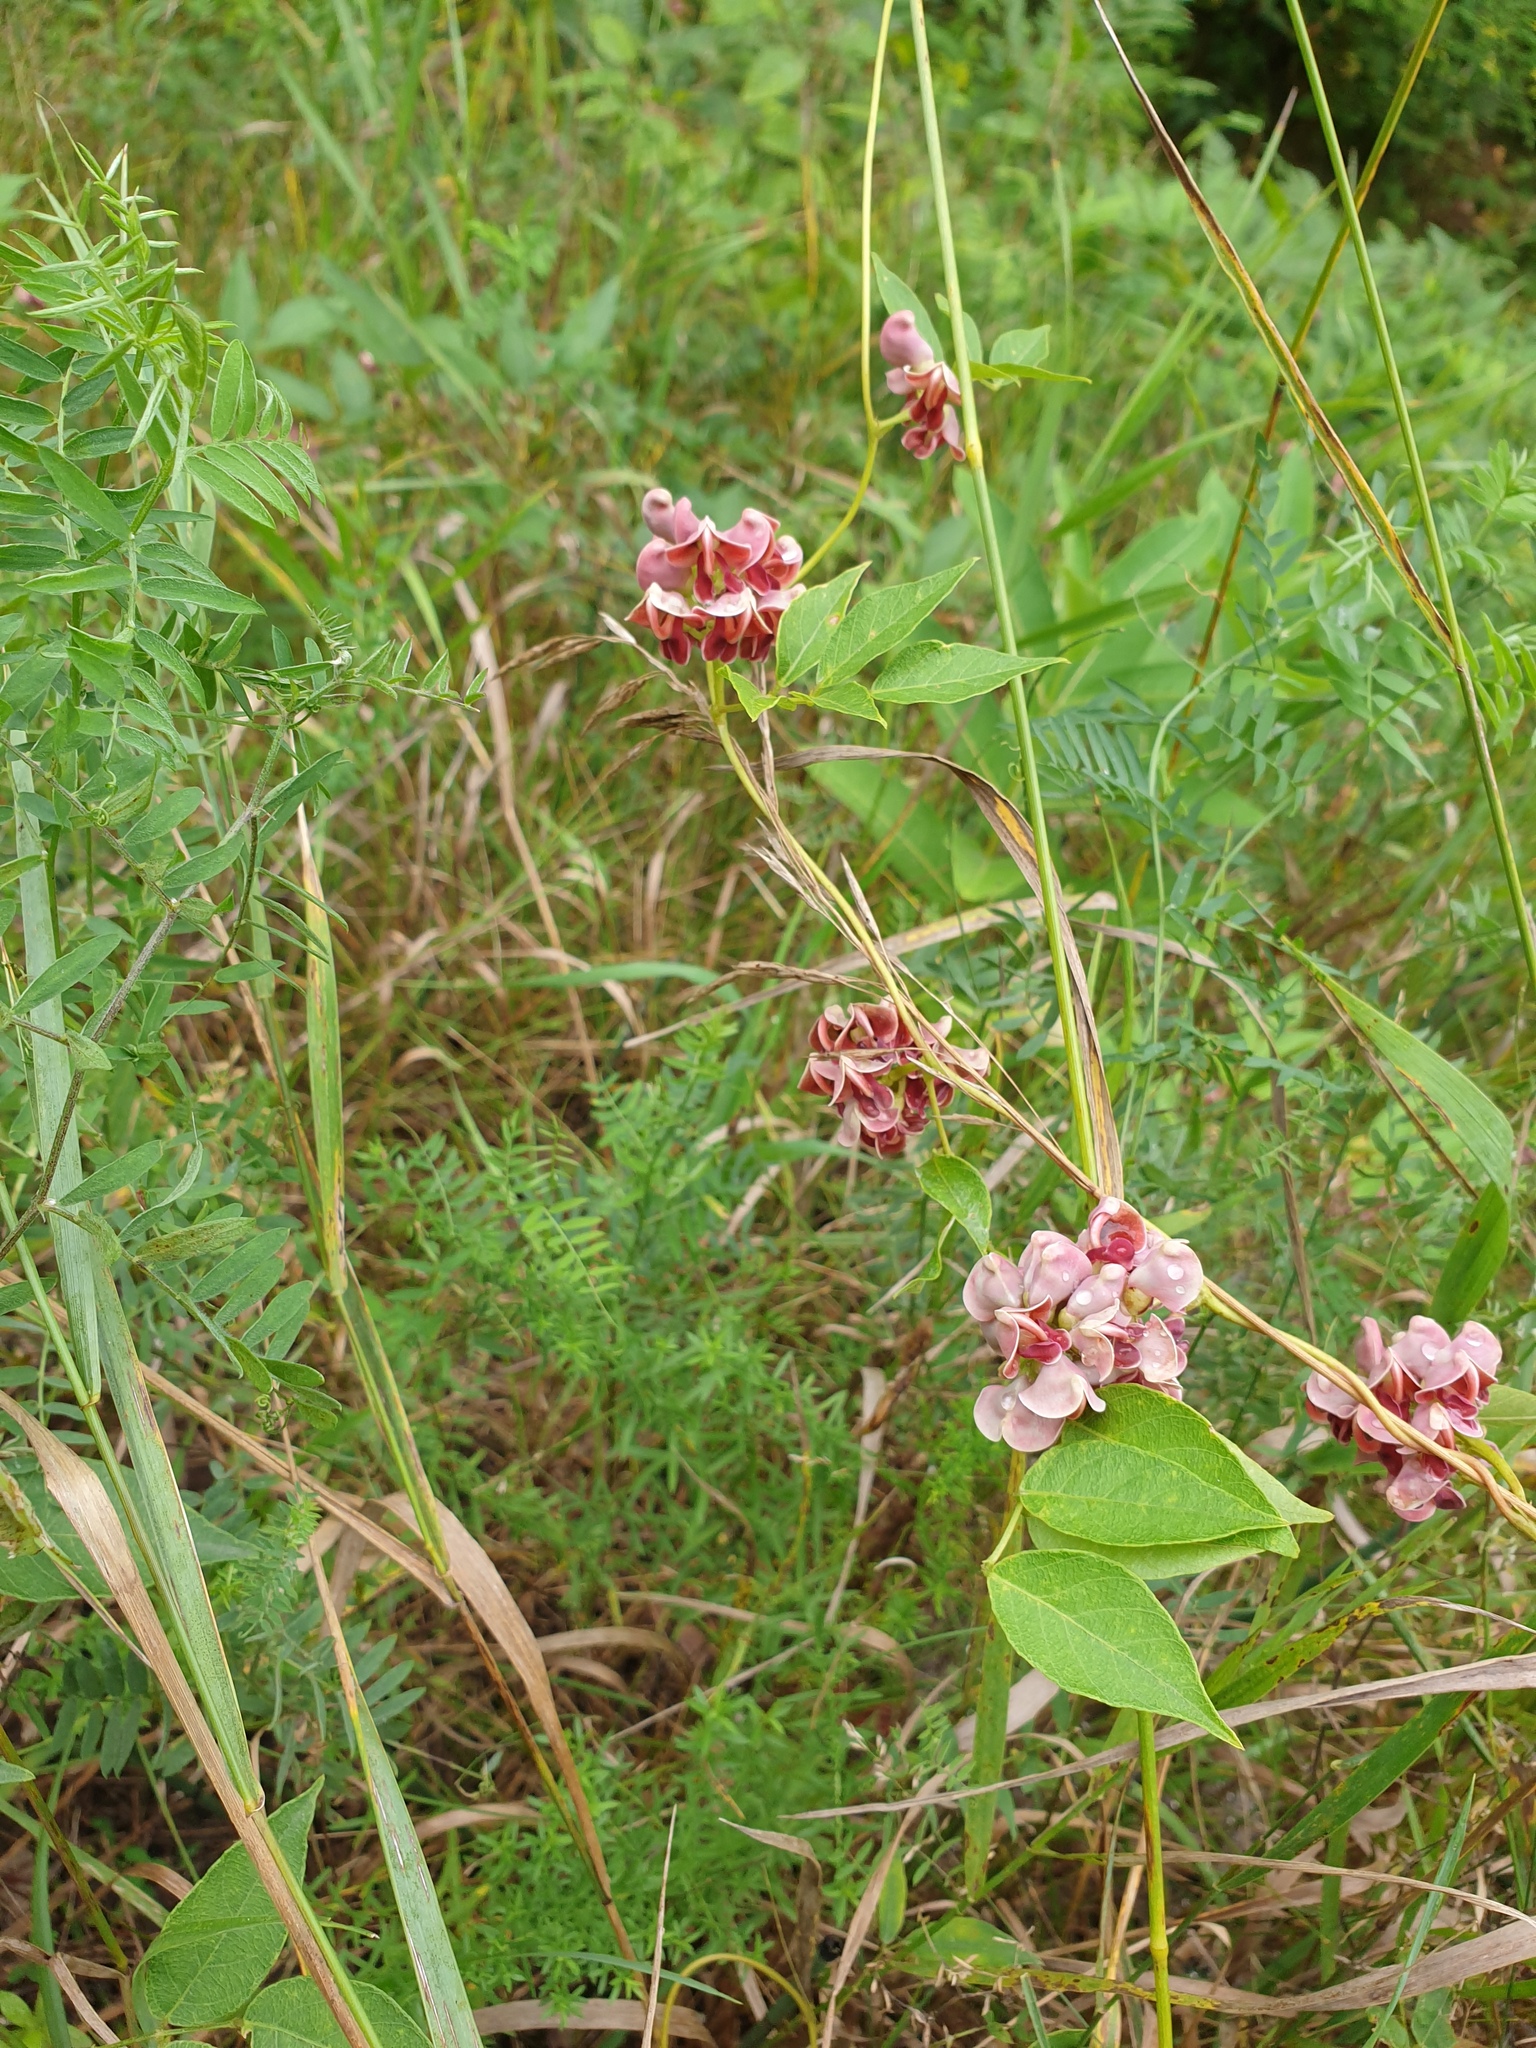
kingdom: Plantae
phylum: Tracheophyta
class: Magnoliopsida
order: Fabales
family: Fabaceae
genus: Apios
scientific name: Apios americana
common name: American potato-bean
